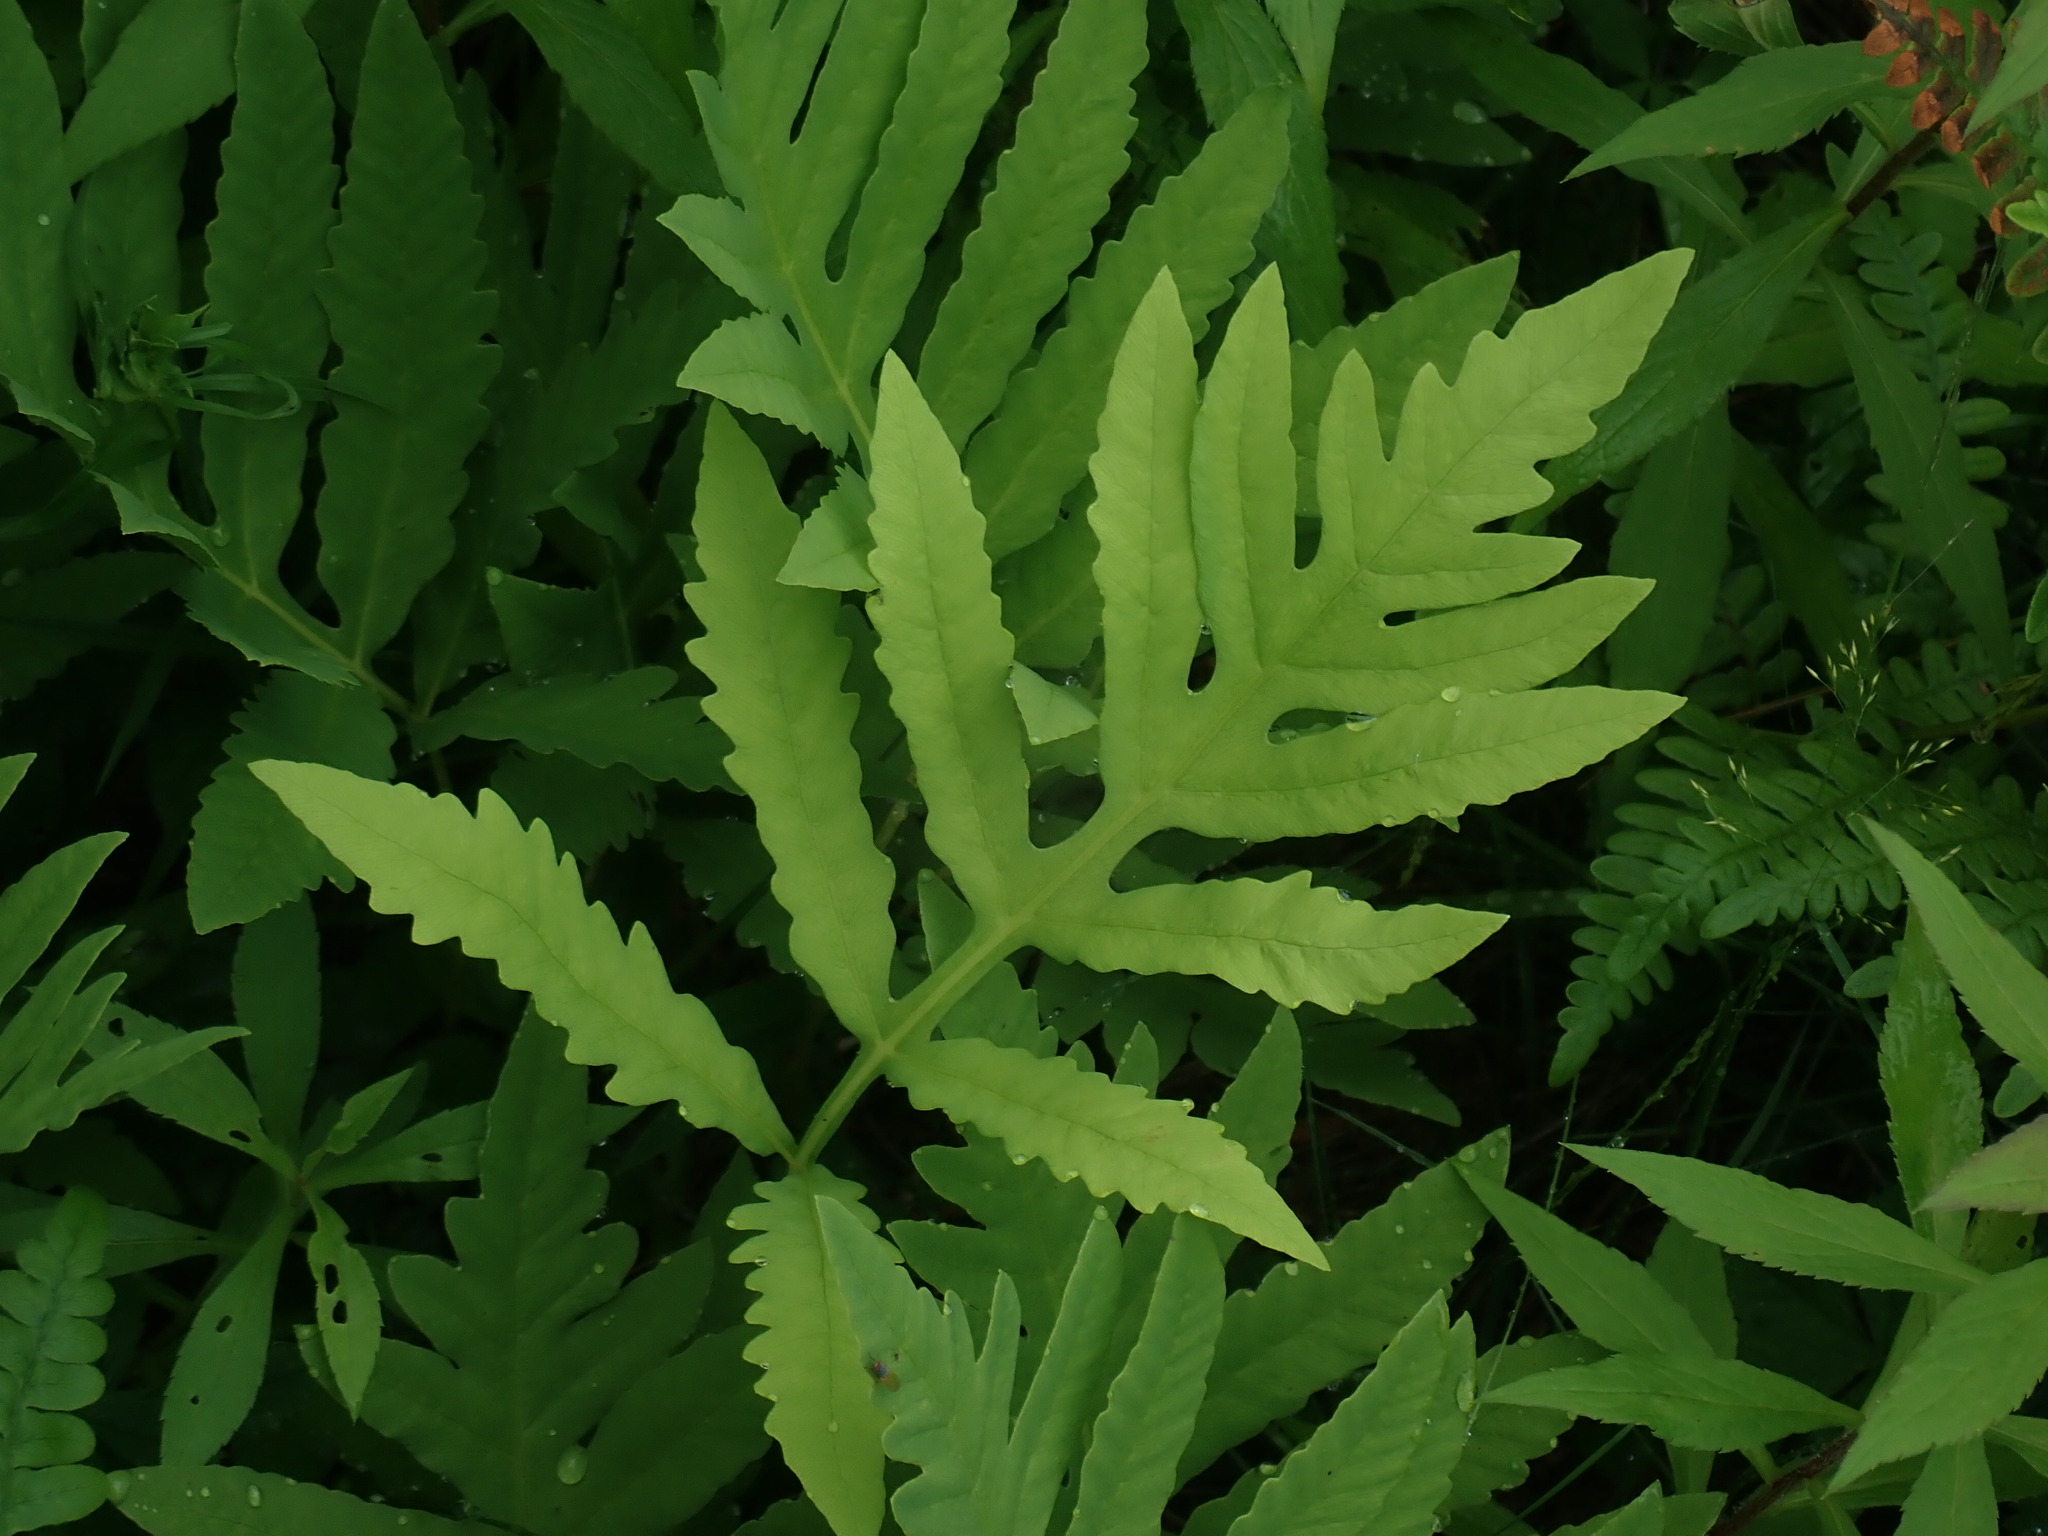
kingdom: Plantae
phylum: Tracheophyta
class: Polypodiopsida
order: Polypodiales
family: Onocleaceae
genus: Onoclea
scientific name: Onoclea sensibilis
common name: Sensitive fern
